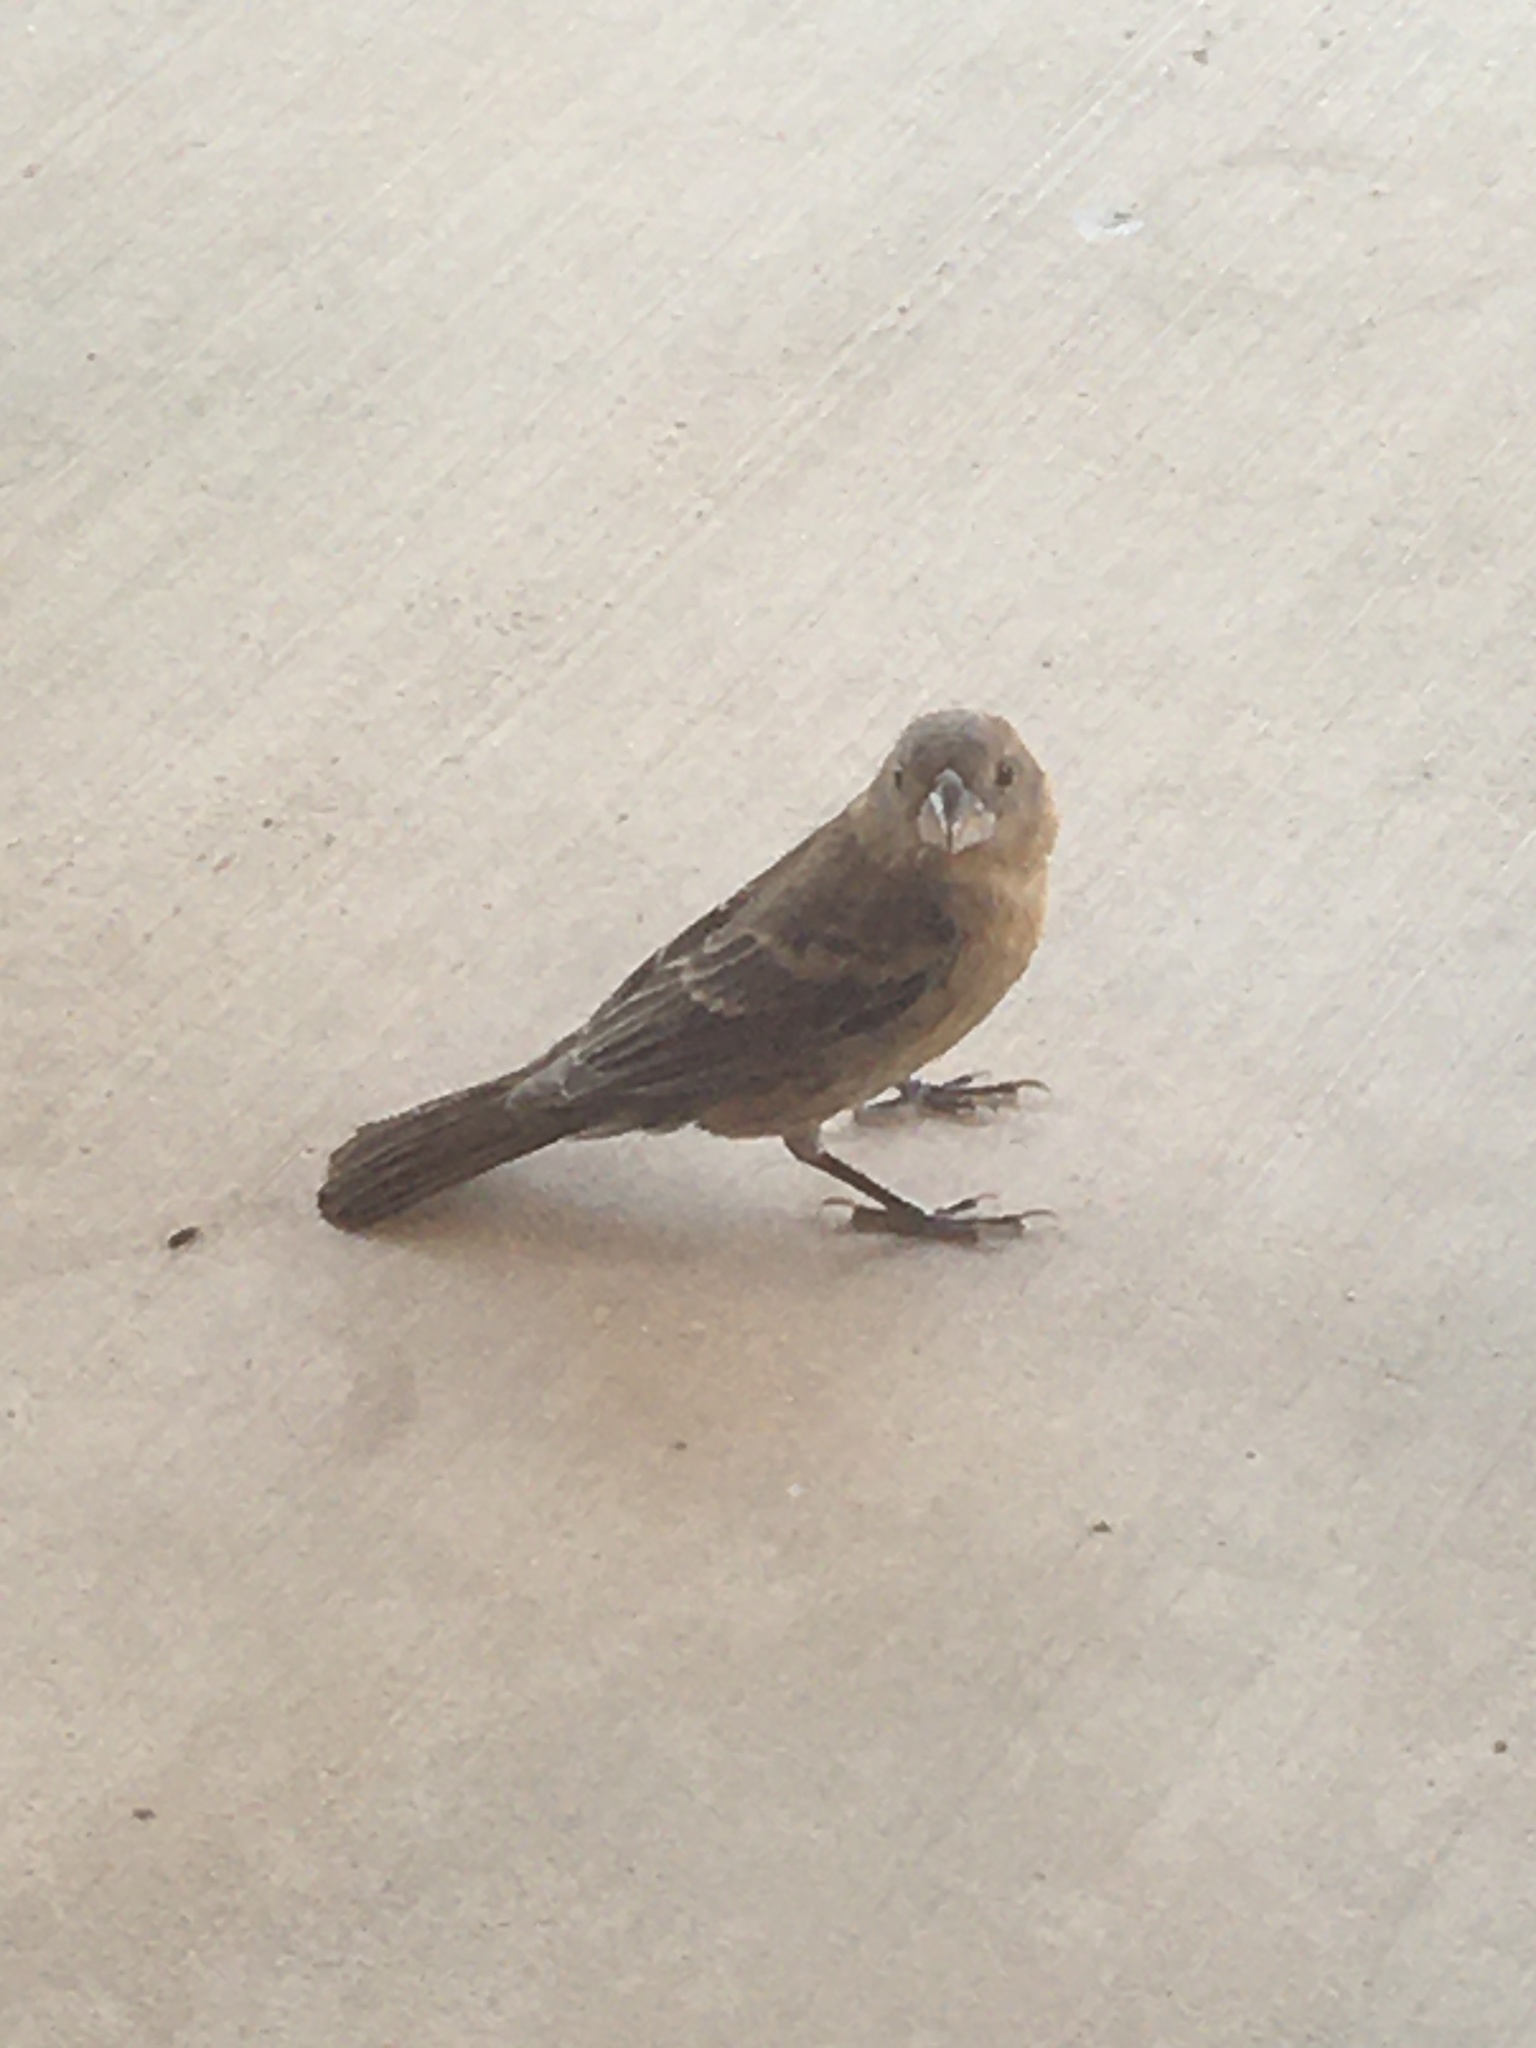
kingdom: Animalia
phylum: Chordata
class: Aves
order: Passeriformes
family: Cardinalidae
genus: Passerina
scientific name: Passerina caerulea
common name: Blue grosbeak
